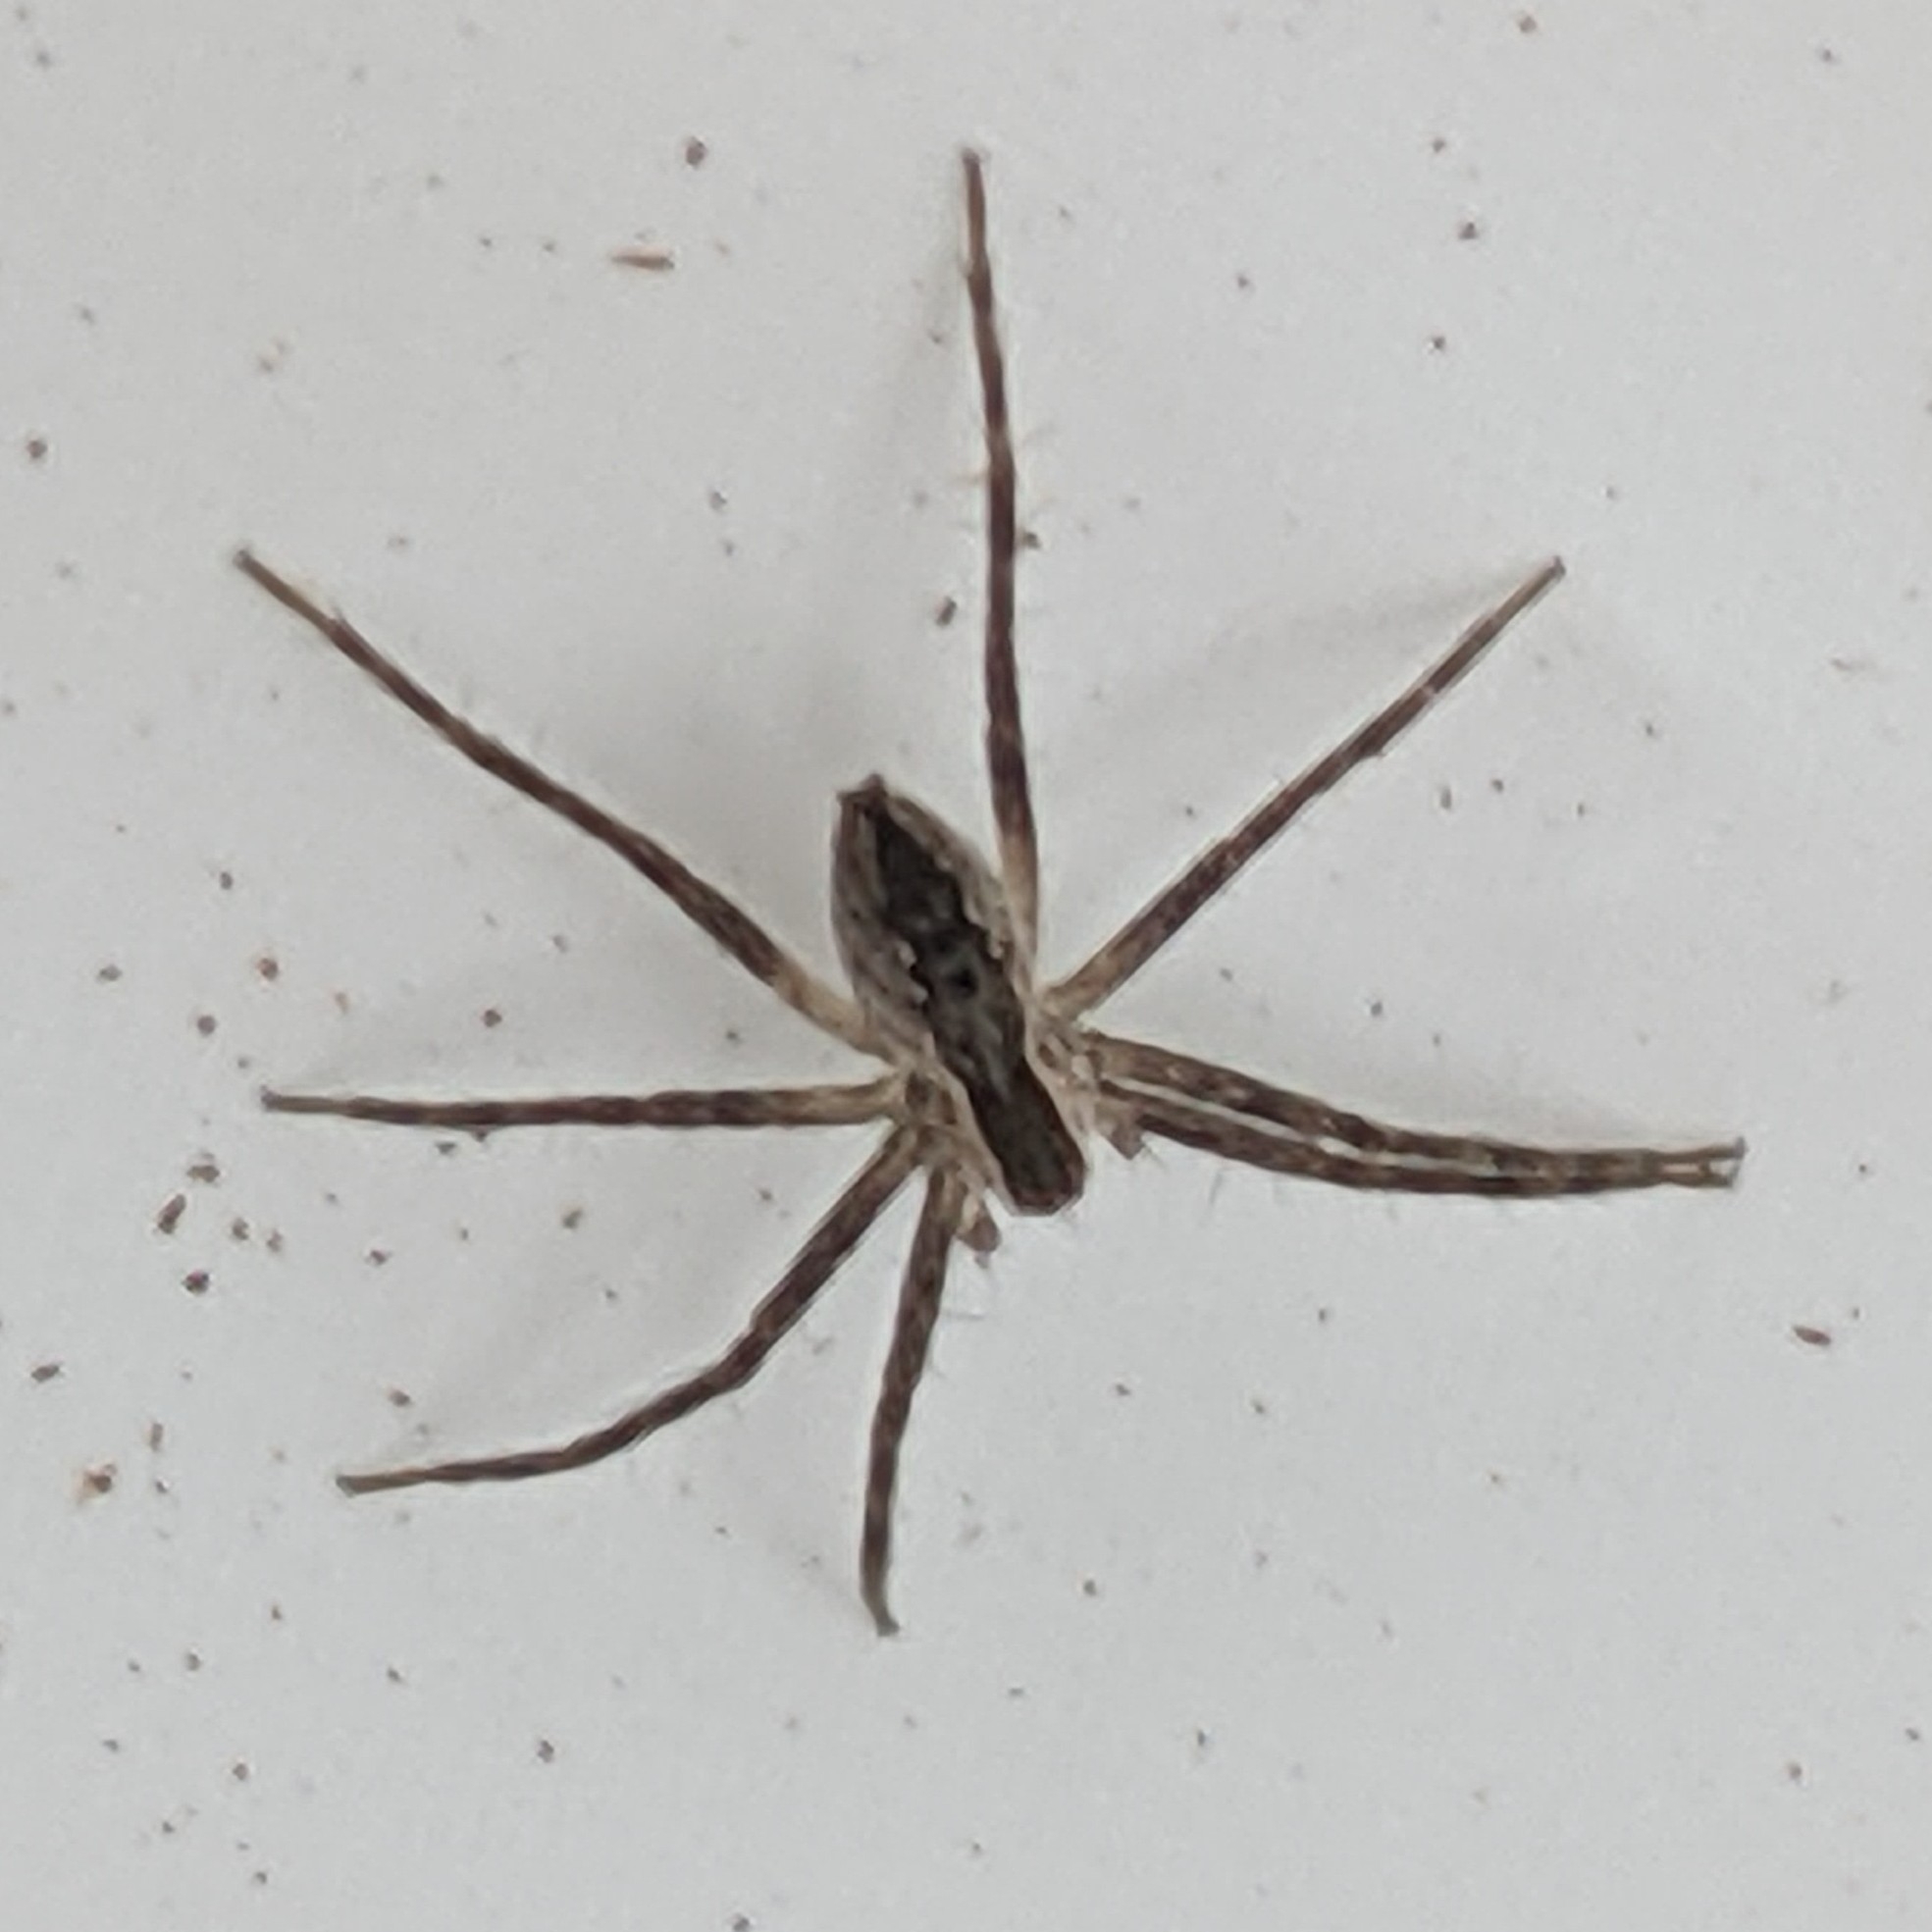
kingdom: Animalia
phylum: Arthropoda
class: Arachnida
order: Araneae
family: Pisauridae
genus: Pisaurina
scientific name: Pisaurina mira
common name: American nursery web spider
